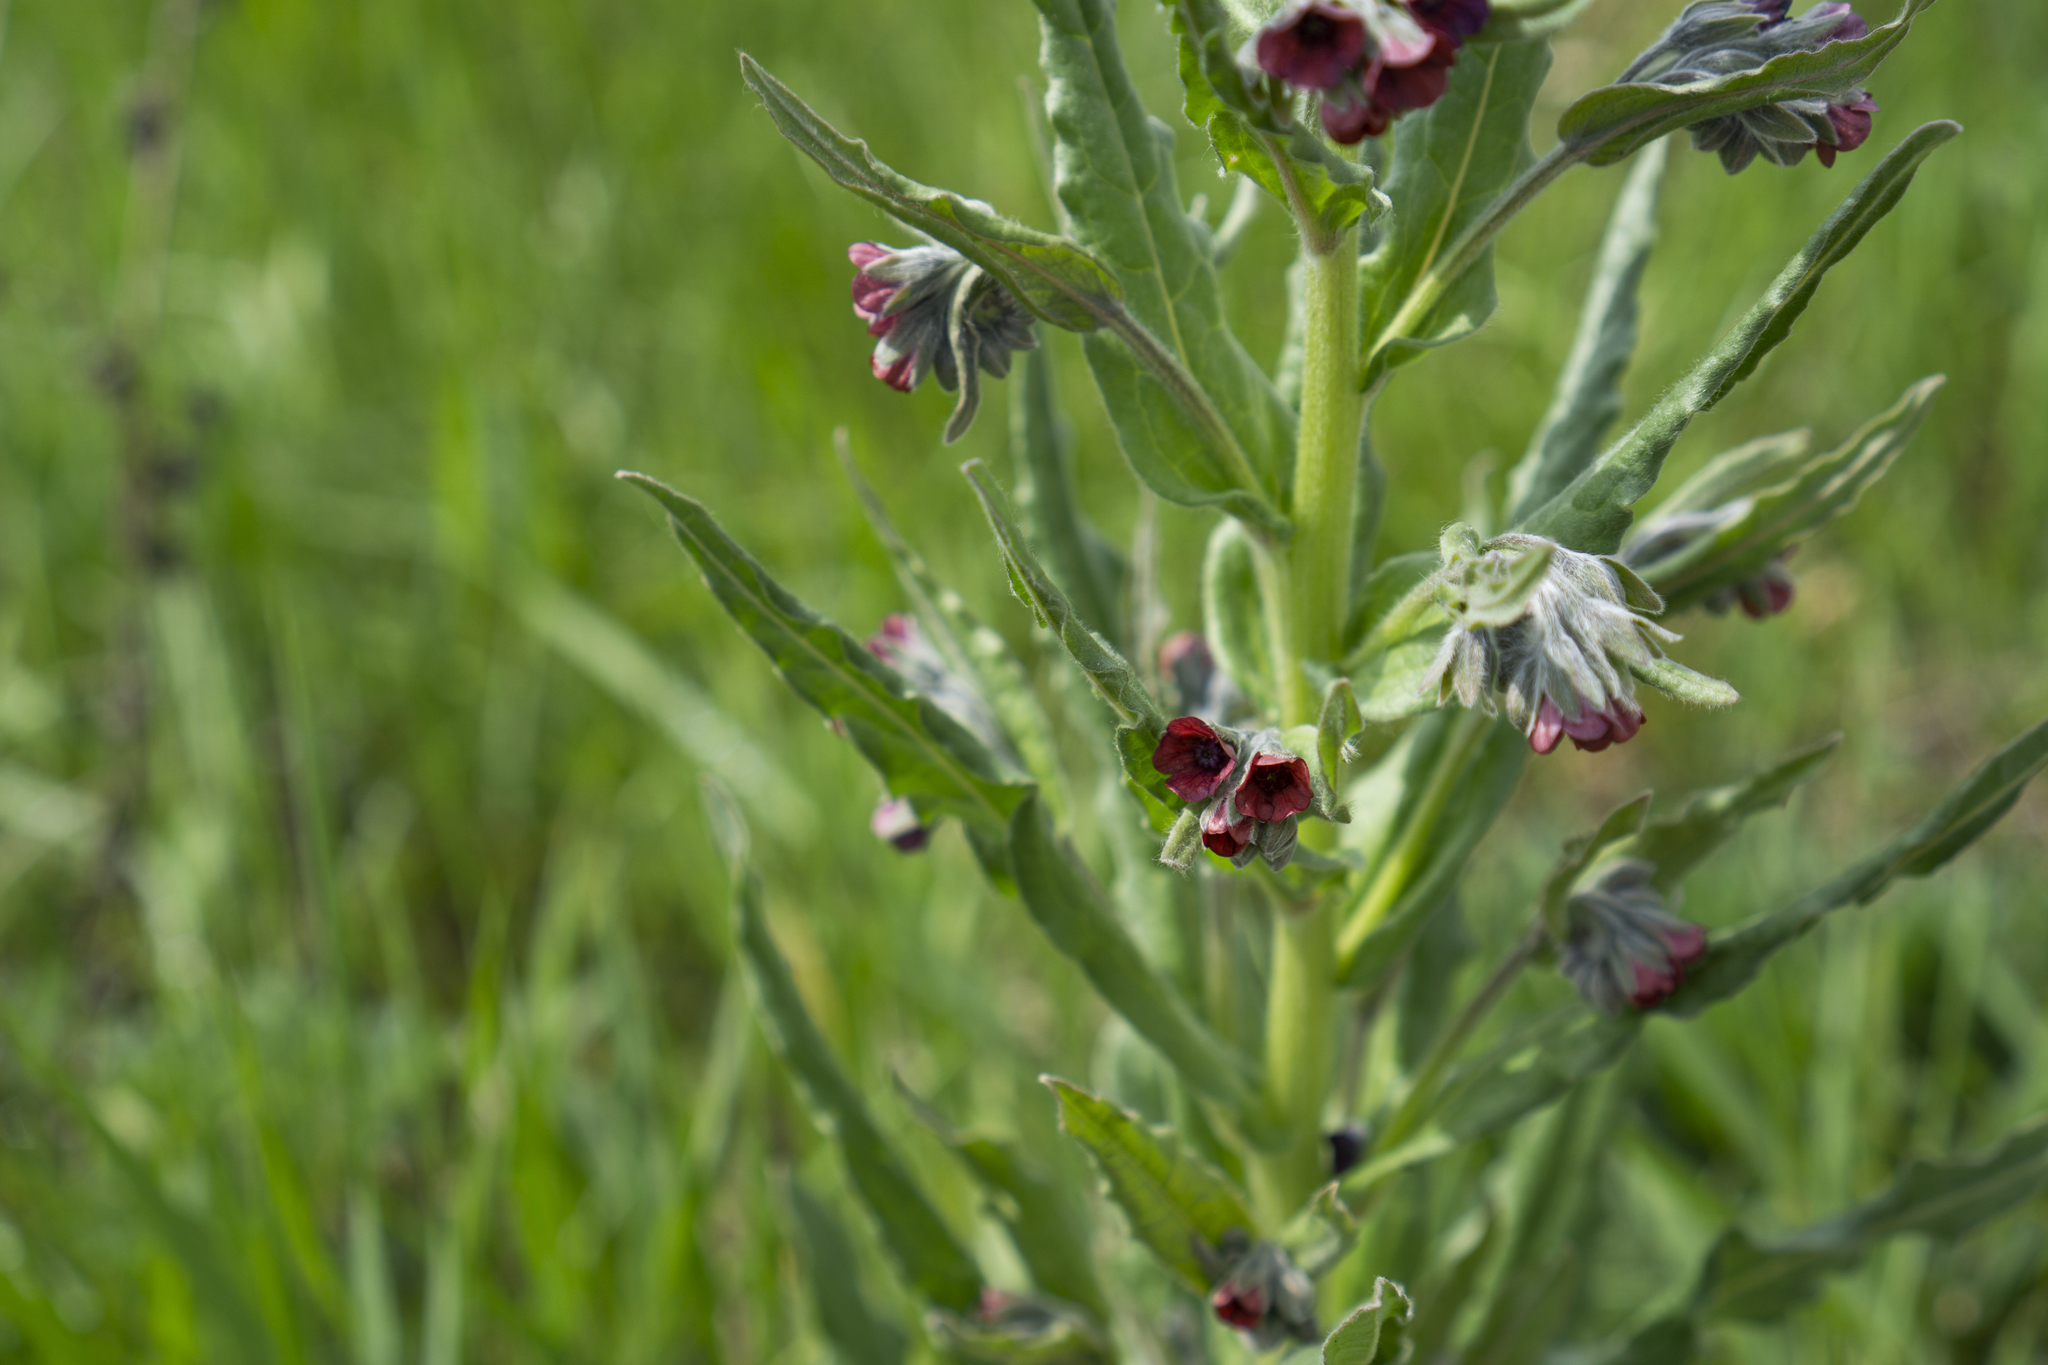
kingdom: Plantae
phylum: Tracheophyta
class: Magnoliopsida
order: Boraginales
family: Boraginaceae
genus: Cynoglossum
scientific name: Cynoglossum officinale
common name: Hound's-tongue
